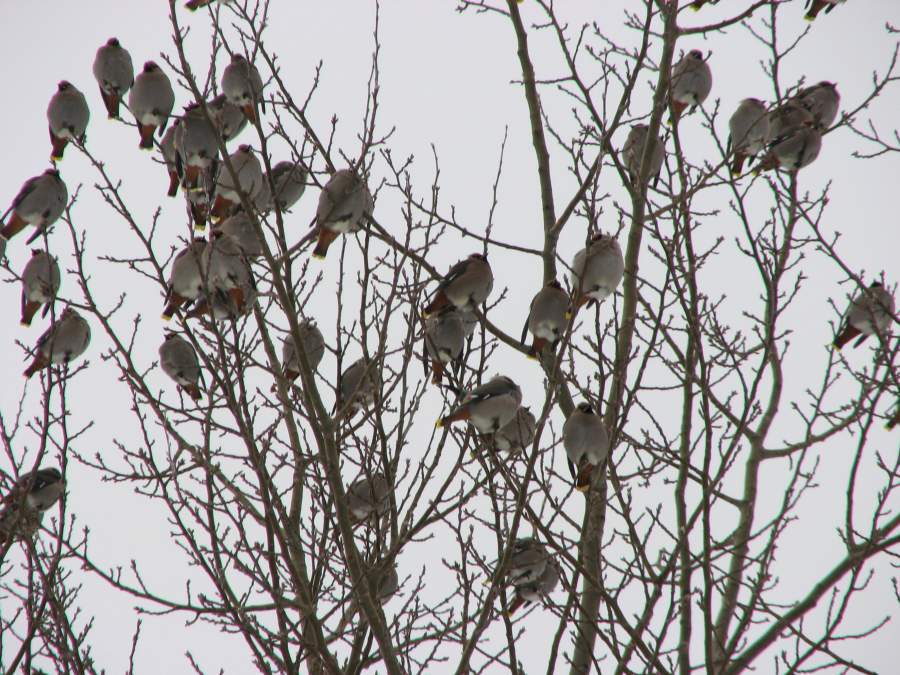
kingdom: Animalia
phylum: Chordata
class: Aves
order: Passeriformes
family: Bombycillidae
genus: Bombycilla
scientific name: Bombycilla garrulus
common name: Bohemian waxwing
